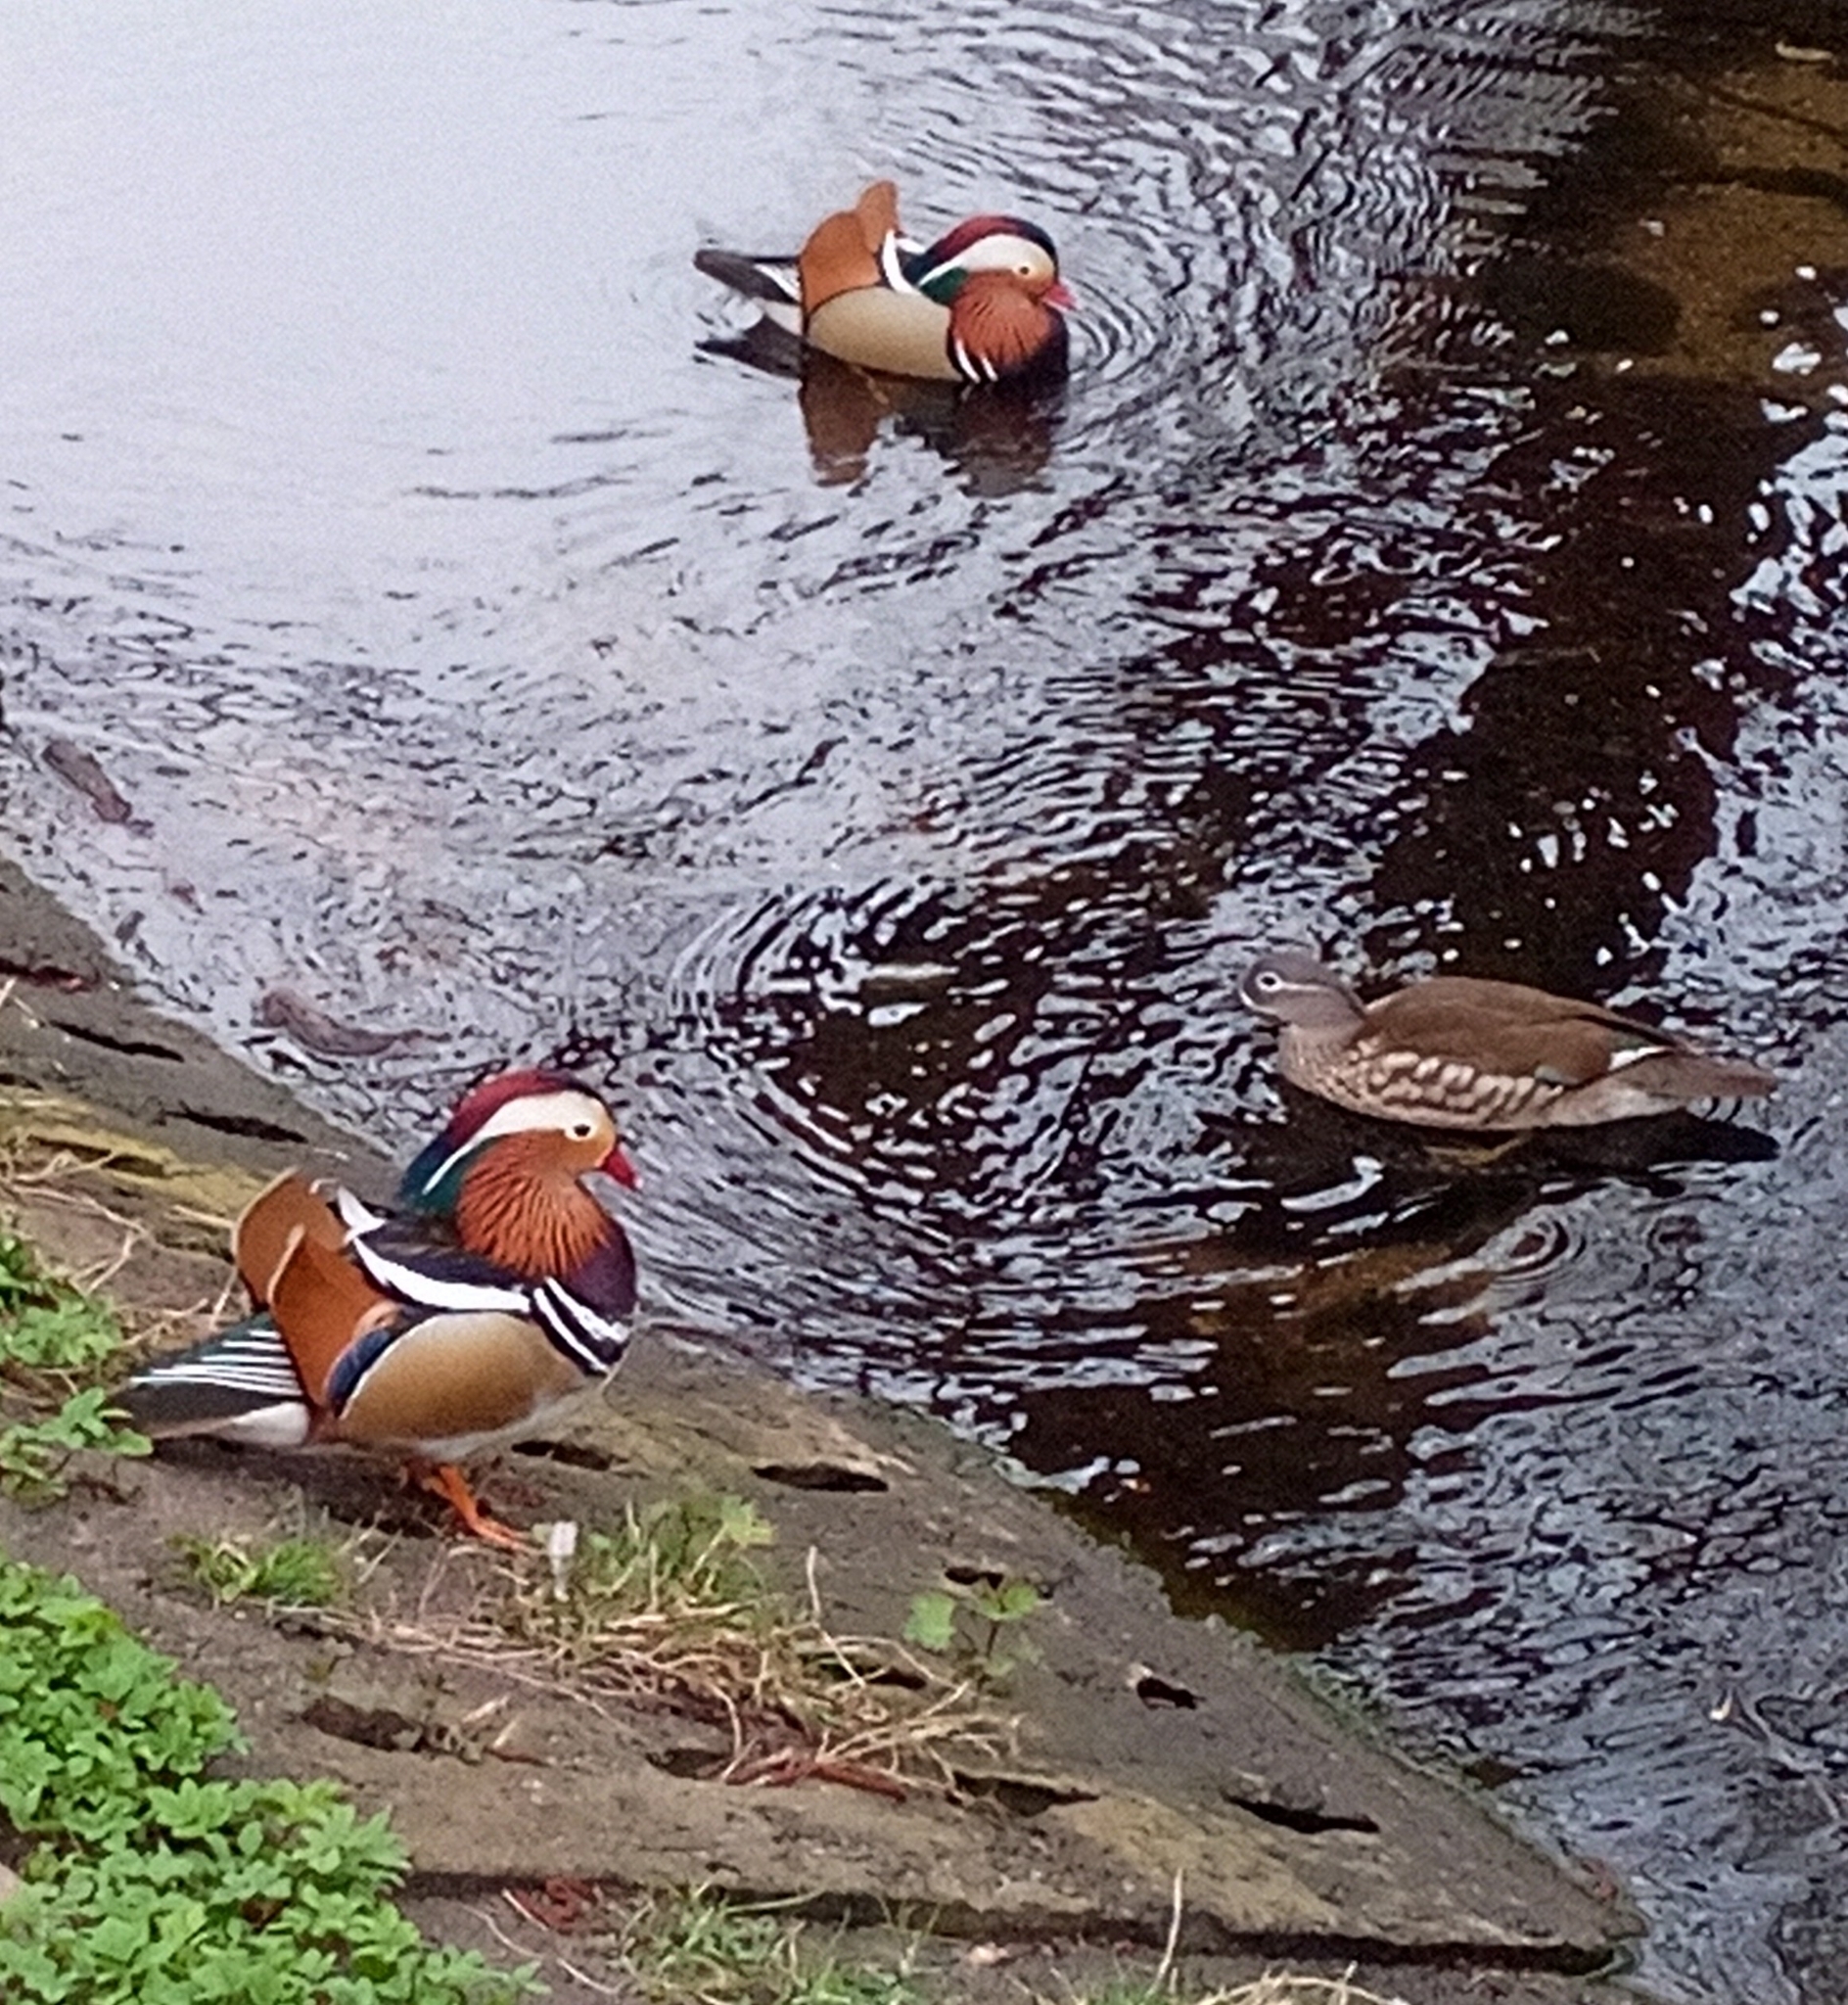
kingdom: Animalia
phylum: Chordata
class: Aves
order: Anseriformes
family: Anatidae
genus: Aix
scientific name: Aix galericulata
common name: Mandarin duck
